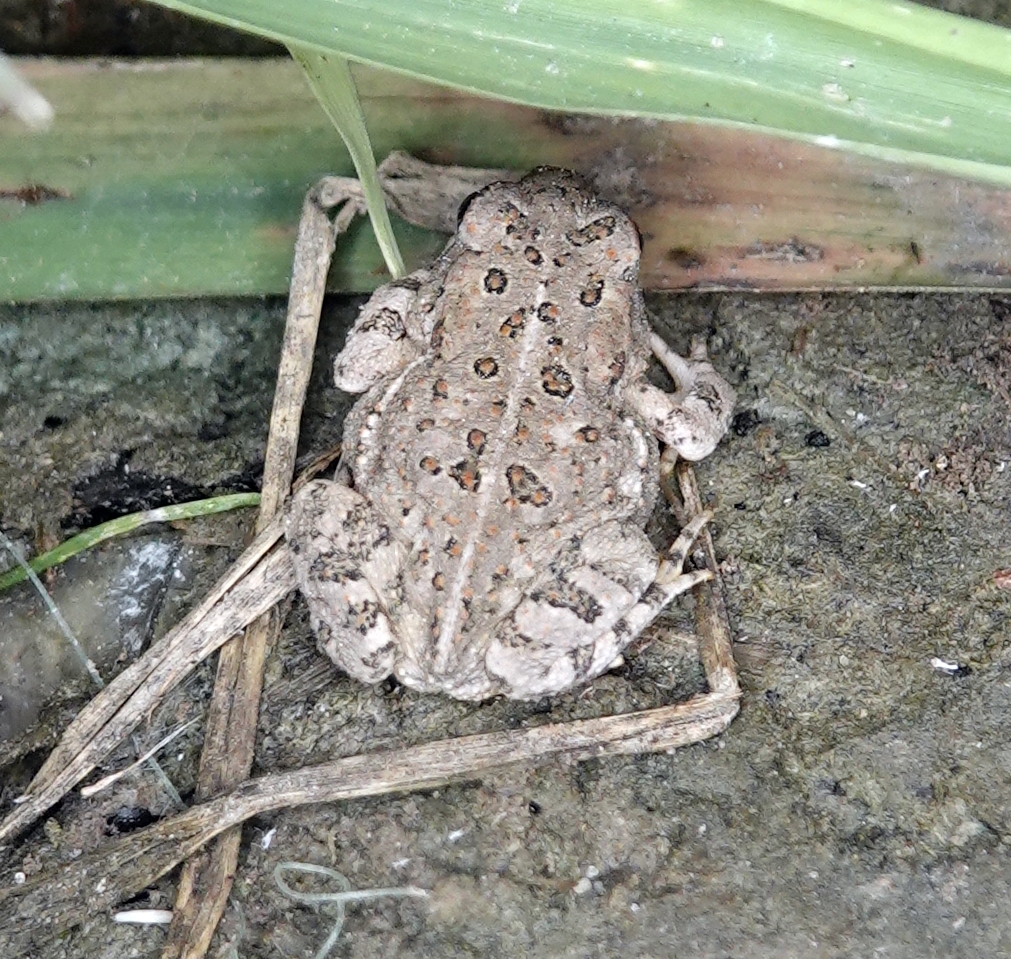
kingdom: Animalia
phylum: Chordata
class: Amphibia
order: Anura
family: Bufonidae
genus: Anaxyrus
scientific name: Anaxyrus woodhousii
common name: Woodhouse's toad
